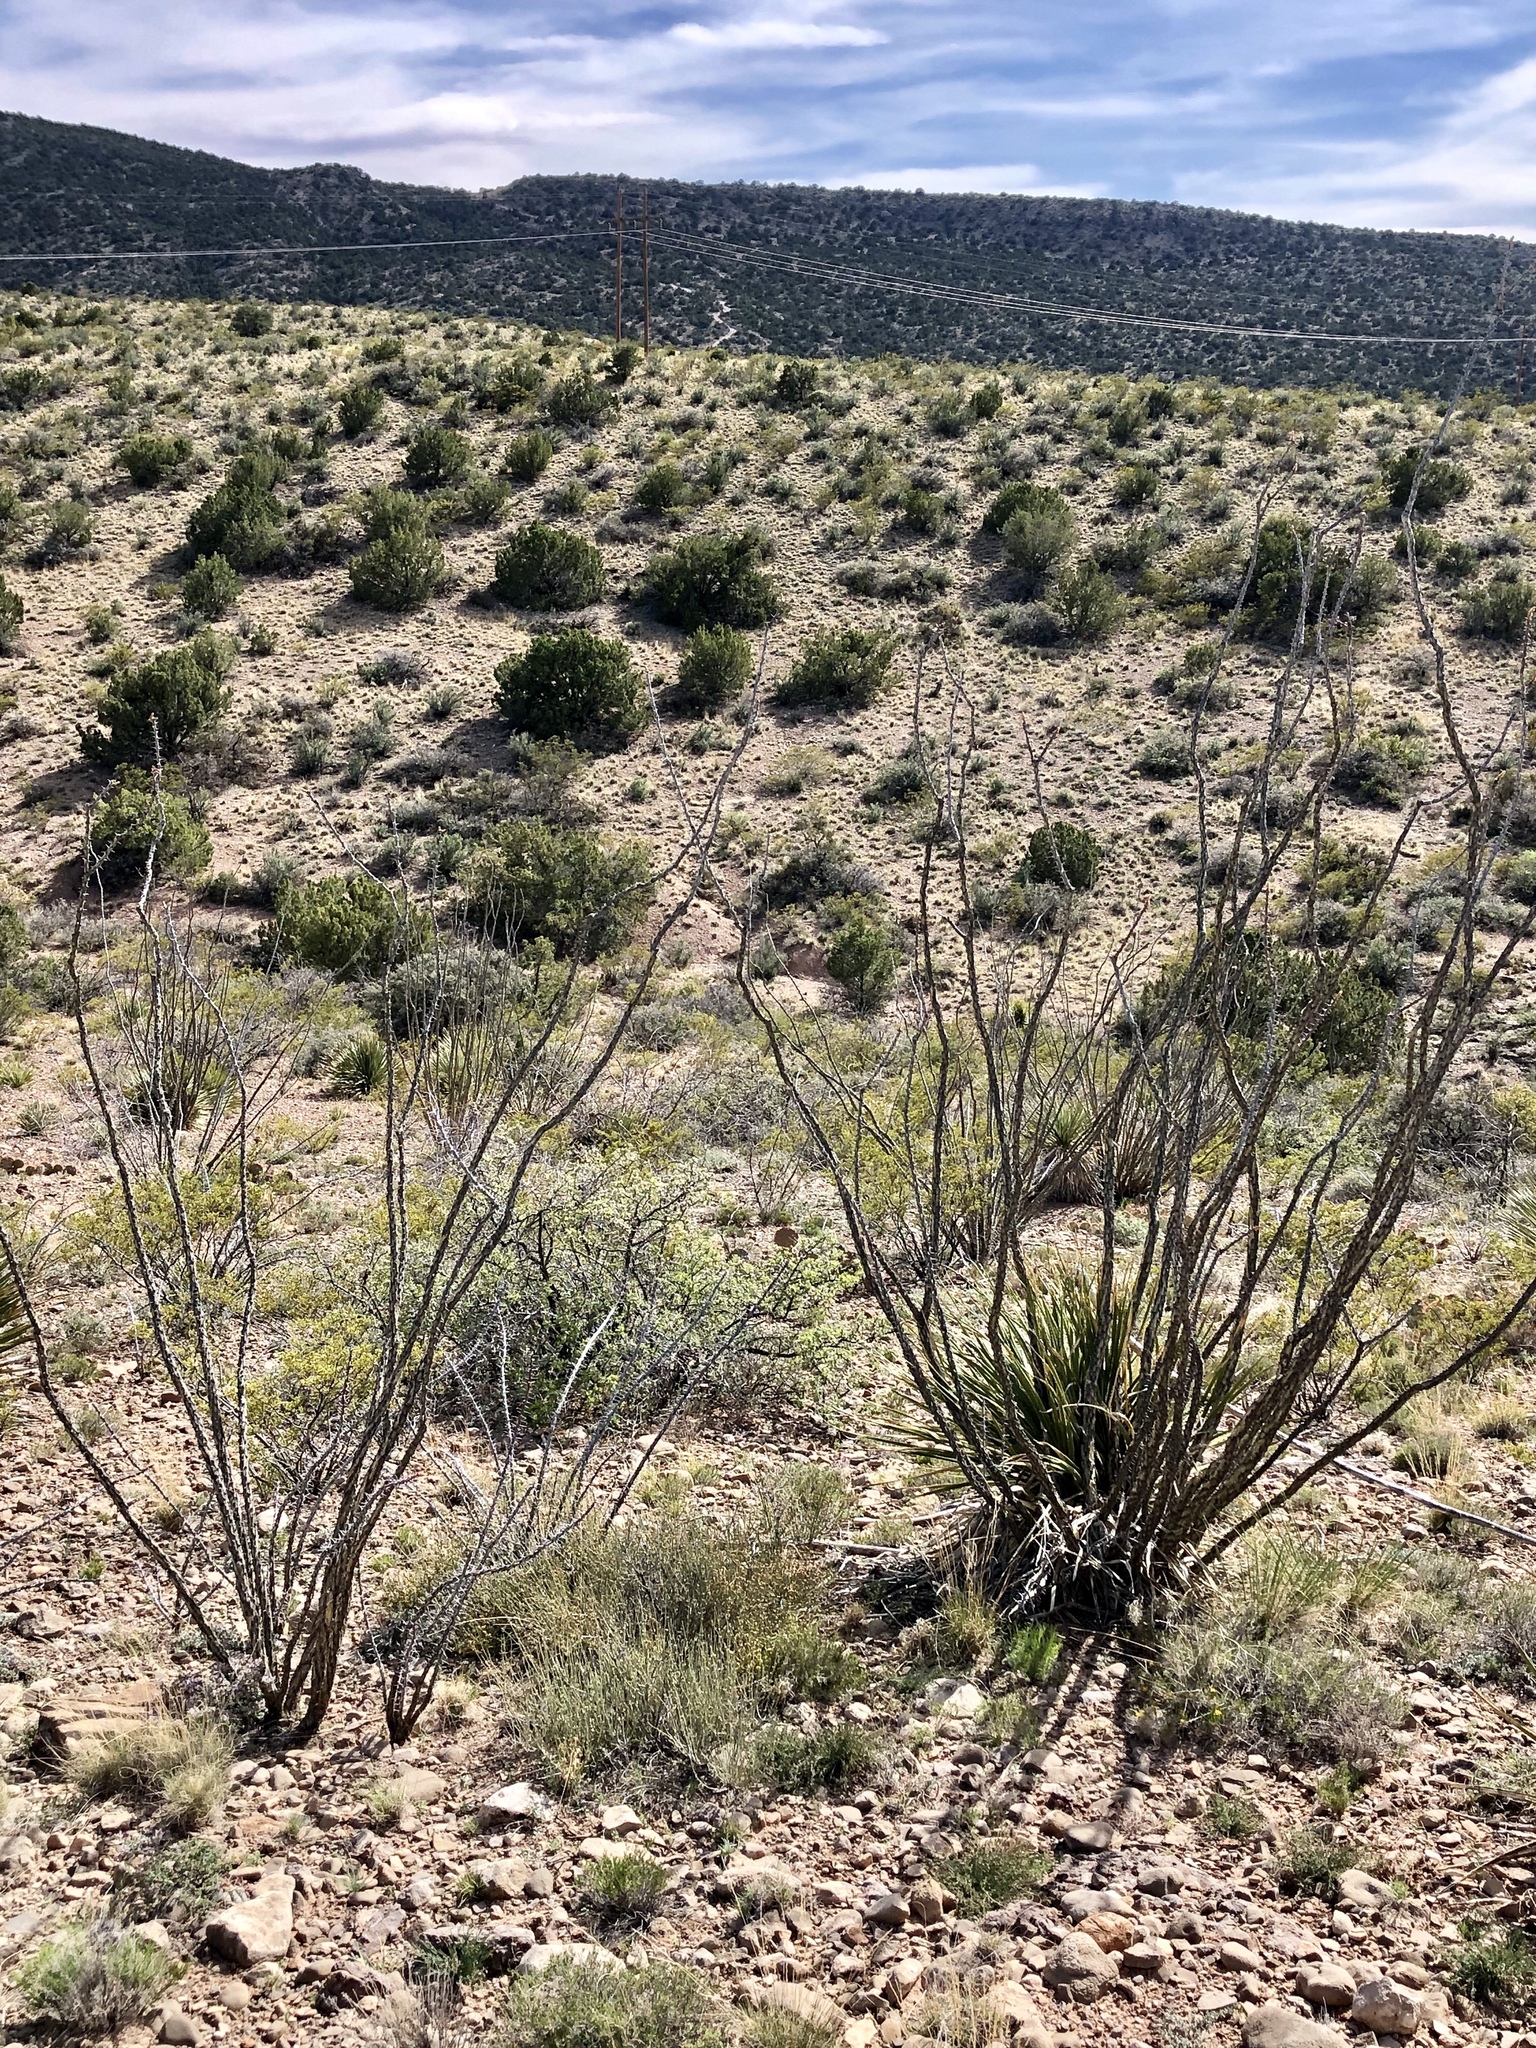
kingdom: Plantae
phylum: Tracheophyta
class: Magnoliopsida
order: Ericales
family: Fouquieriaceae
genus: Fouquieria
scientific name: Fouquieria splendens
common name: Vine-cactus
